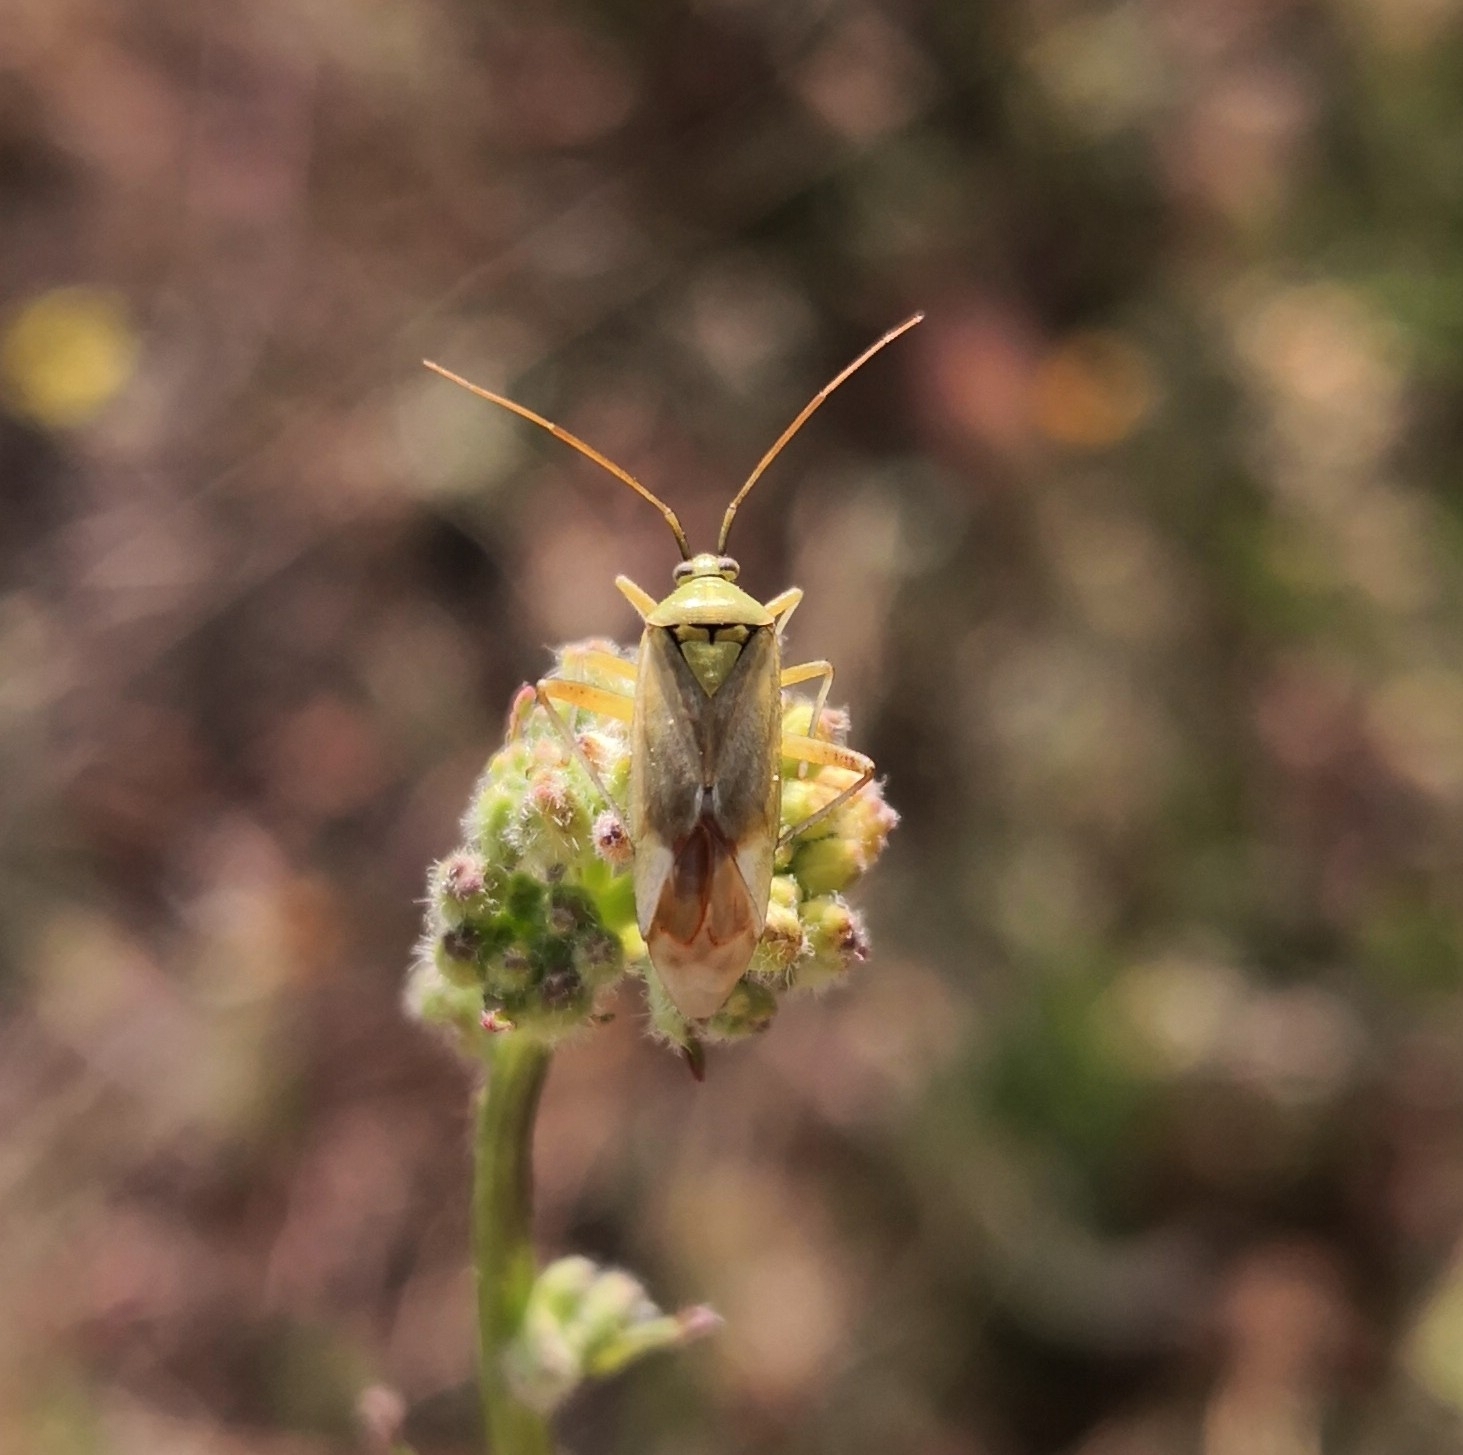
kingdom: Animalia
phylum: Arthropoda
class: Insecta
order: Hemiptera
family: Miridae
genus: Reuterista
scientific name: Reuterista instabilis
